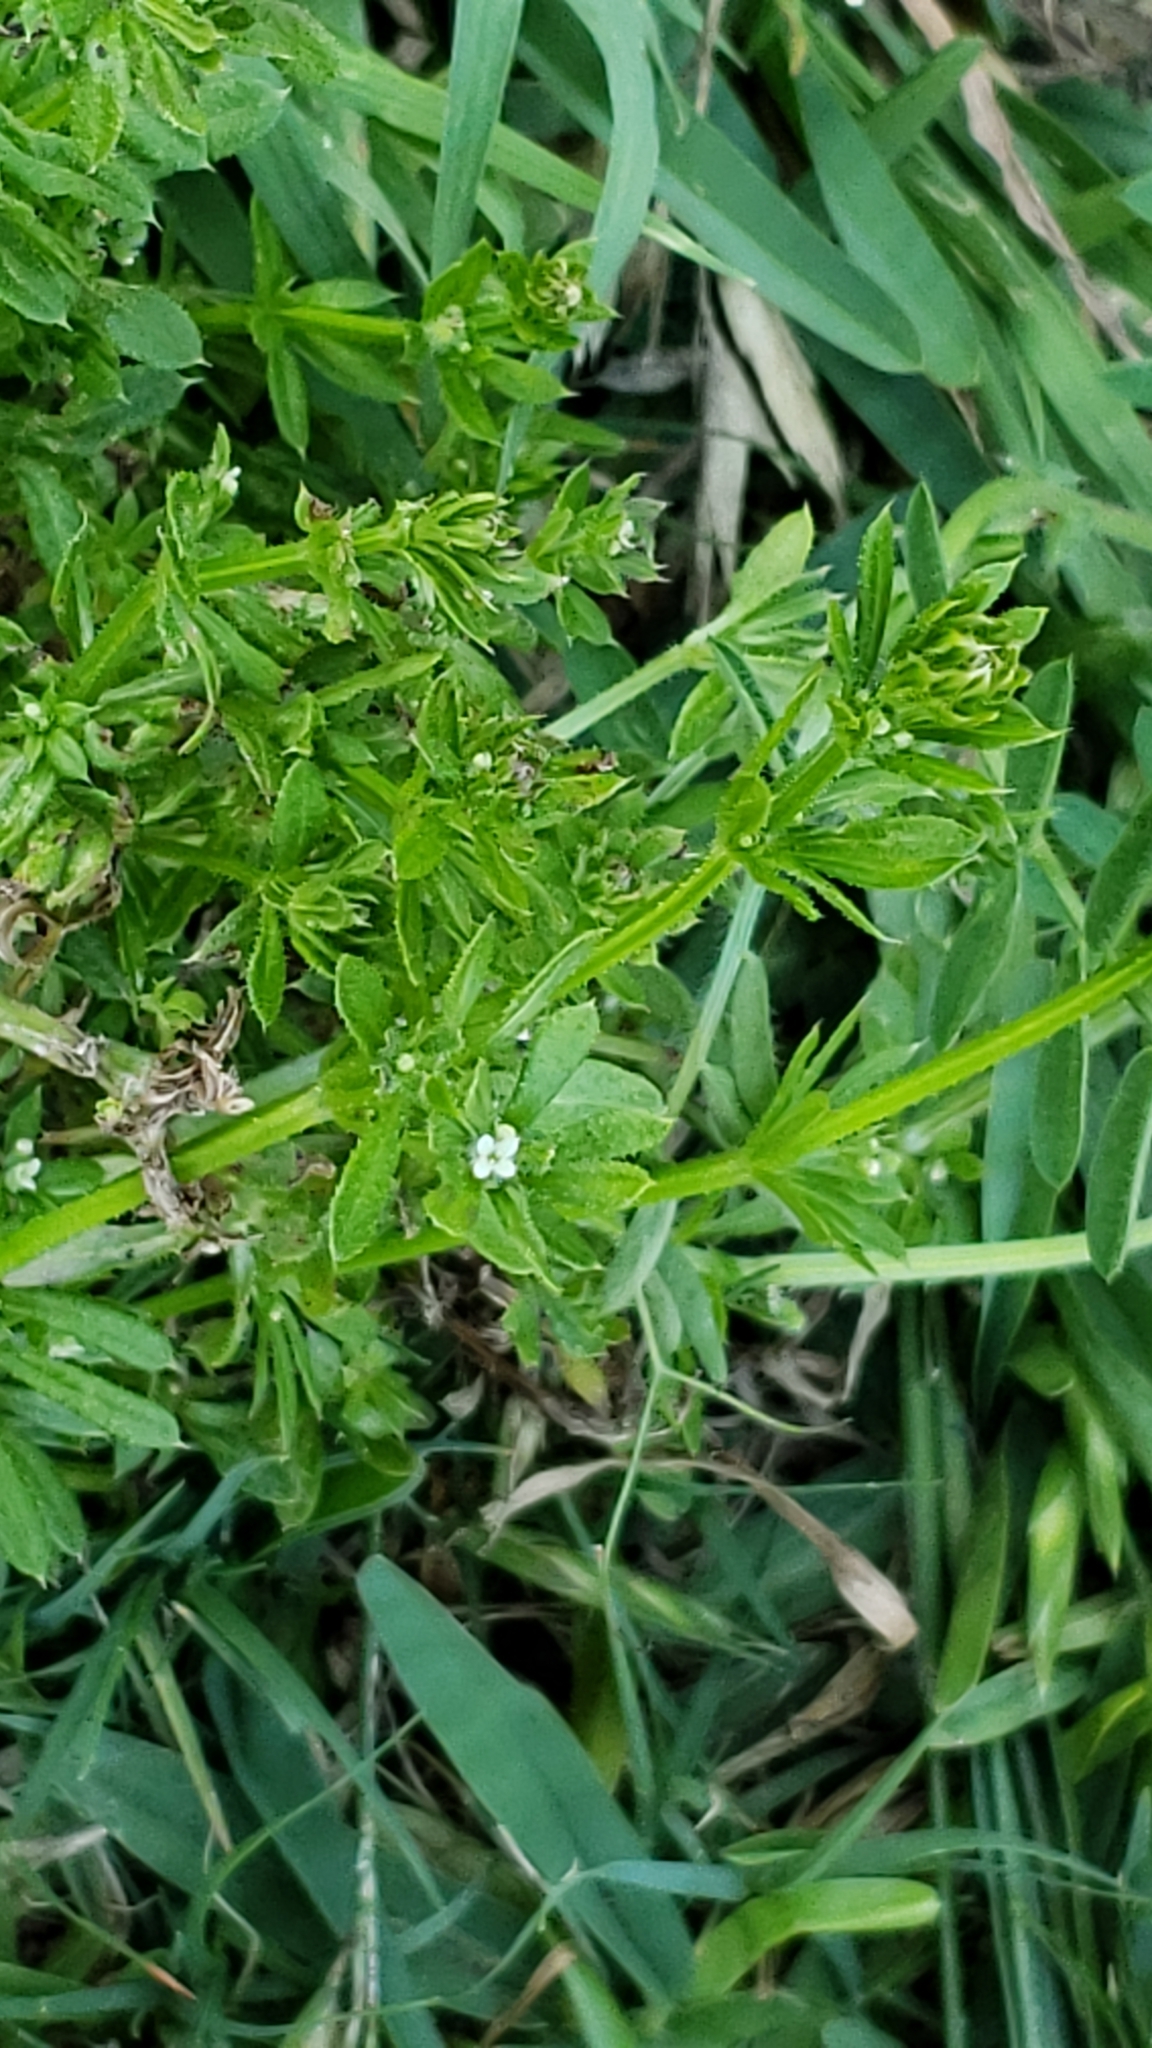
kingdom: Plantae
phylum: Tracheophyta
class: Magnoliopsida
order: Gentianales
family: Rubiaceae
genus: Galium
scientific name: Galium aparine
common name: Cleavers
